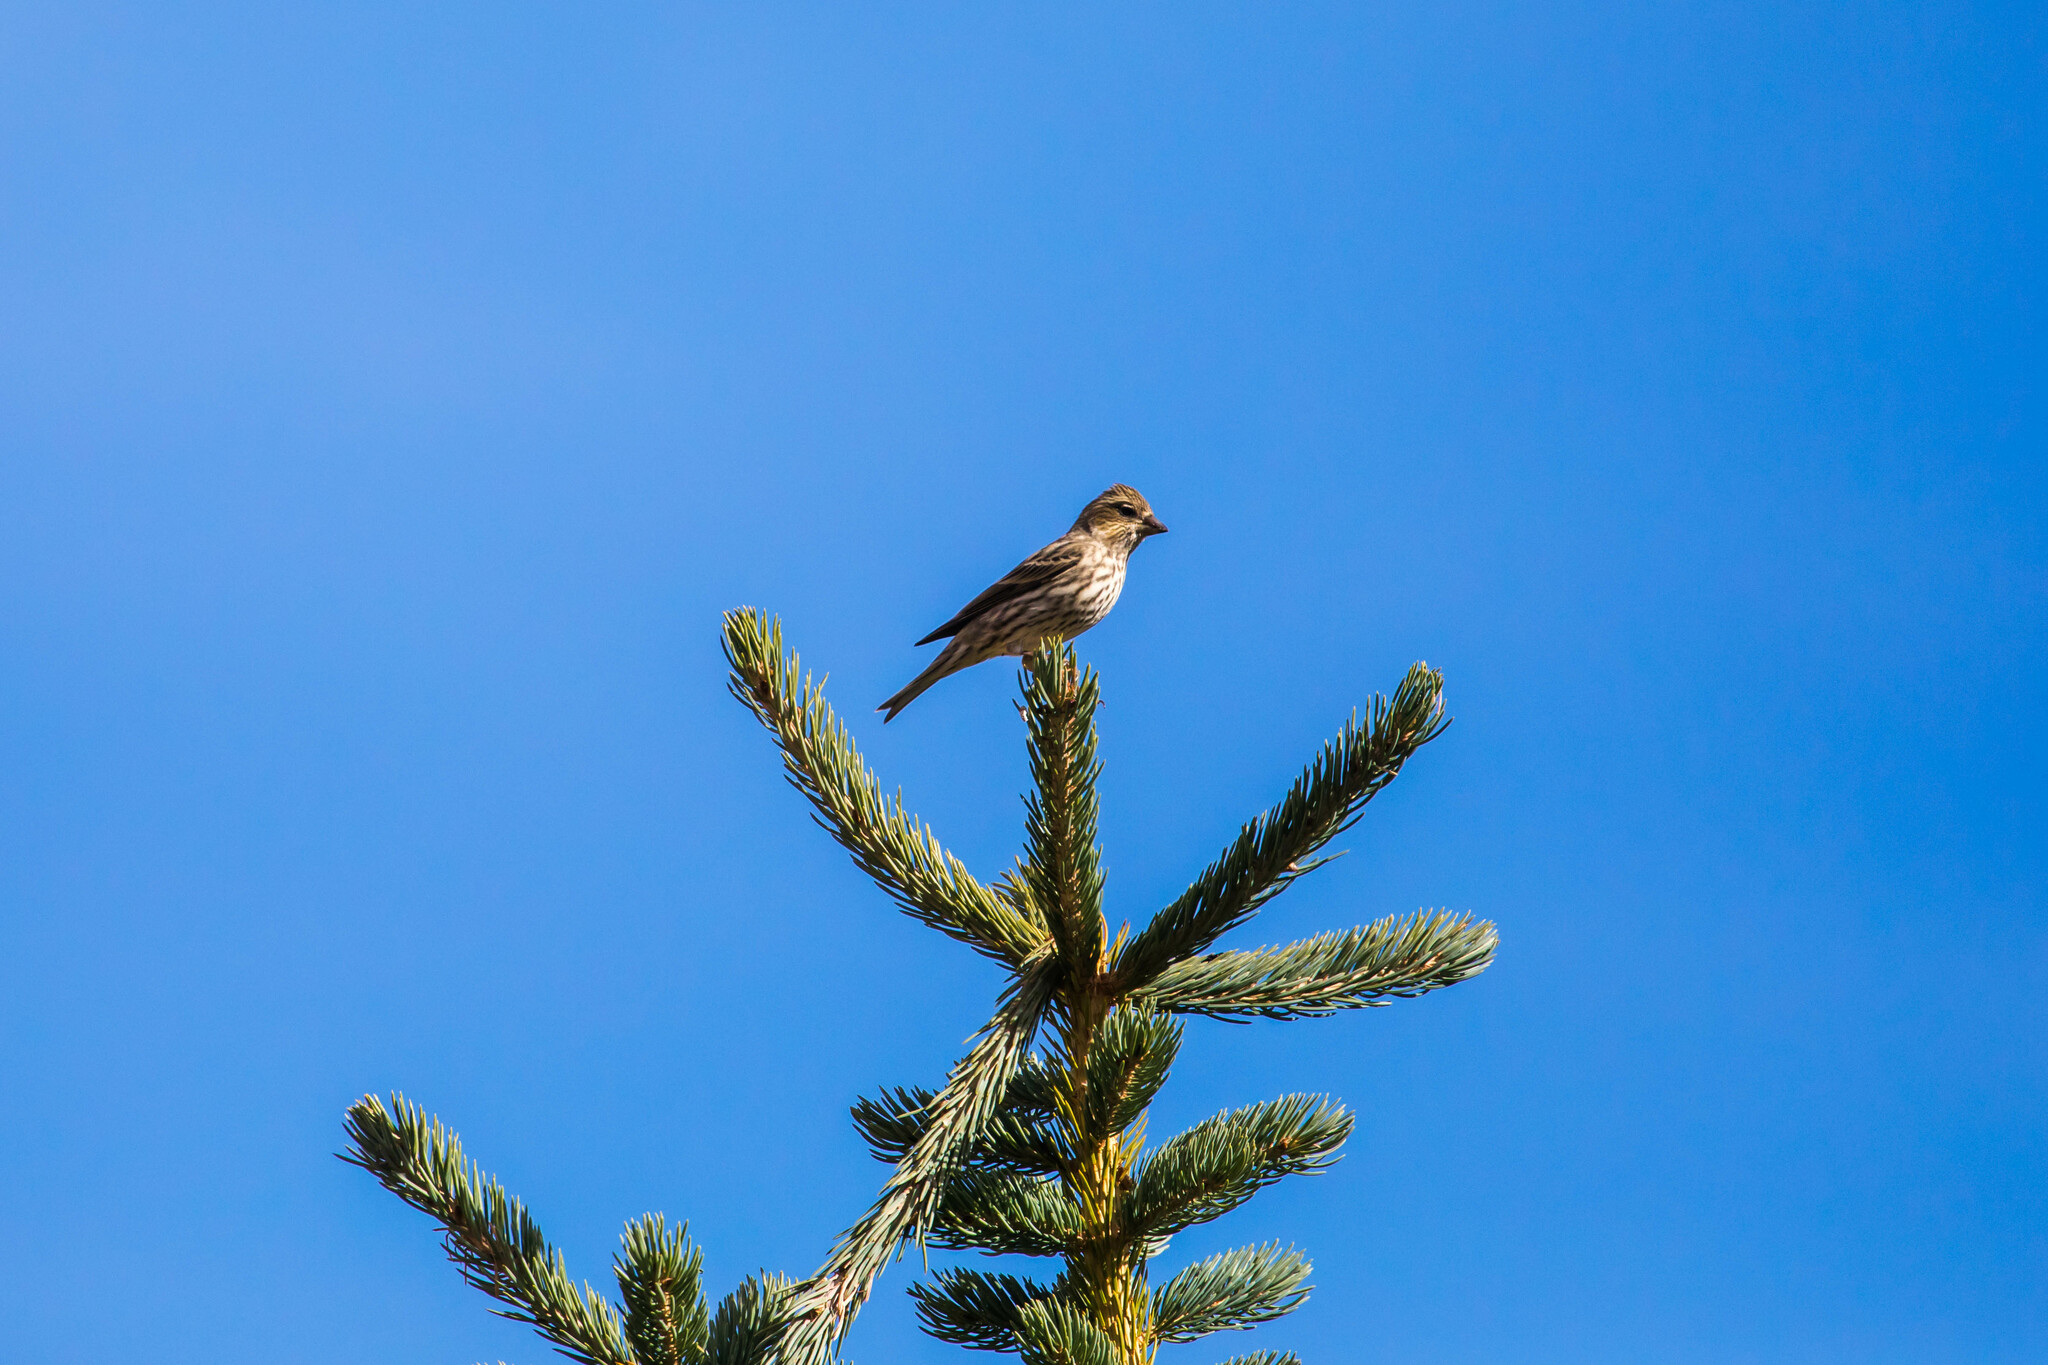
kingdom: Animalia
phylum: Chordata
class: Aves
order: Passeriformes
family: Fringillidae
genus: Haemorhous
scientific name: Haemorhous cassinii
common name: Cassin's finch
